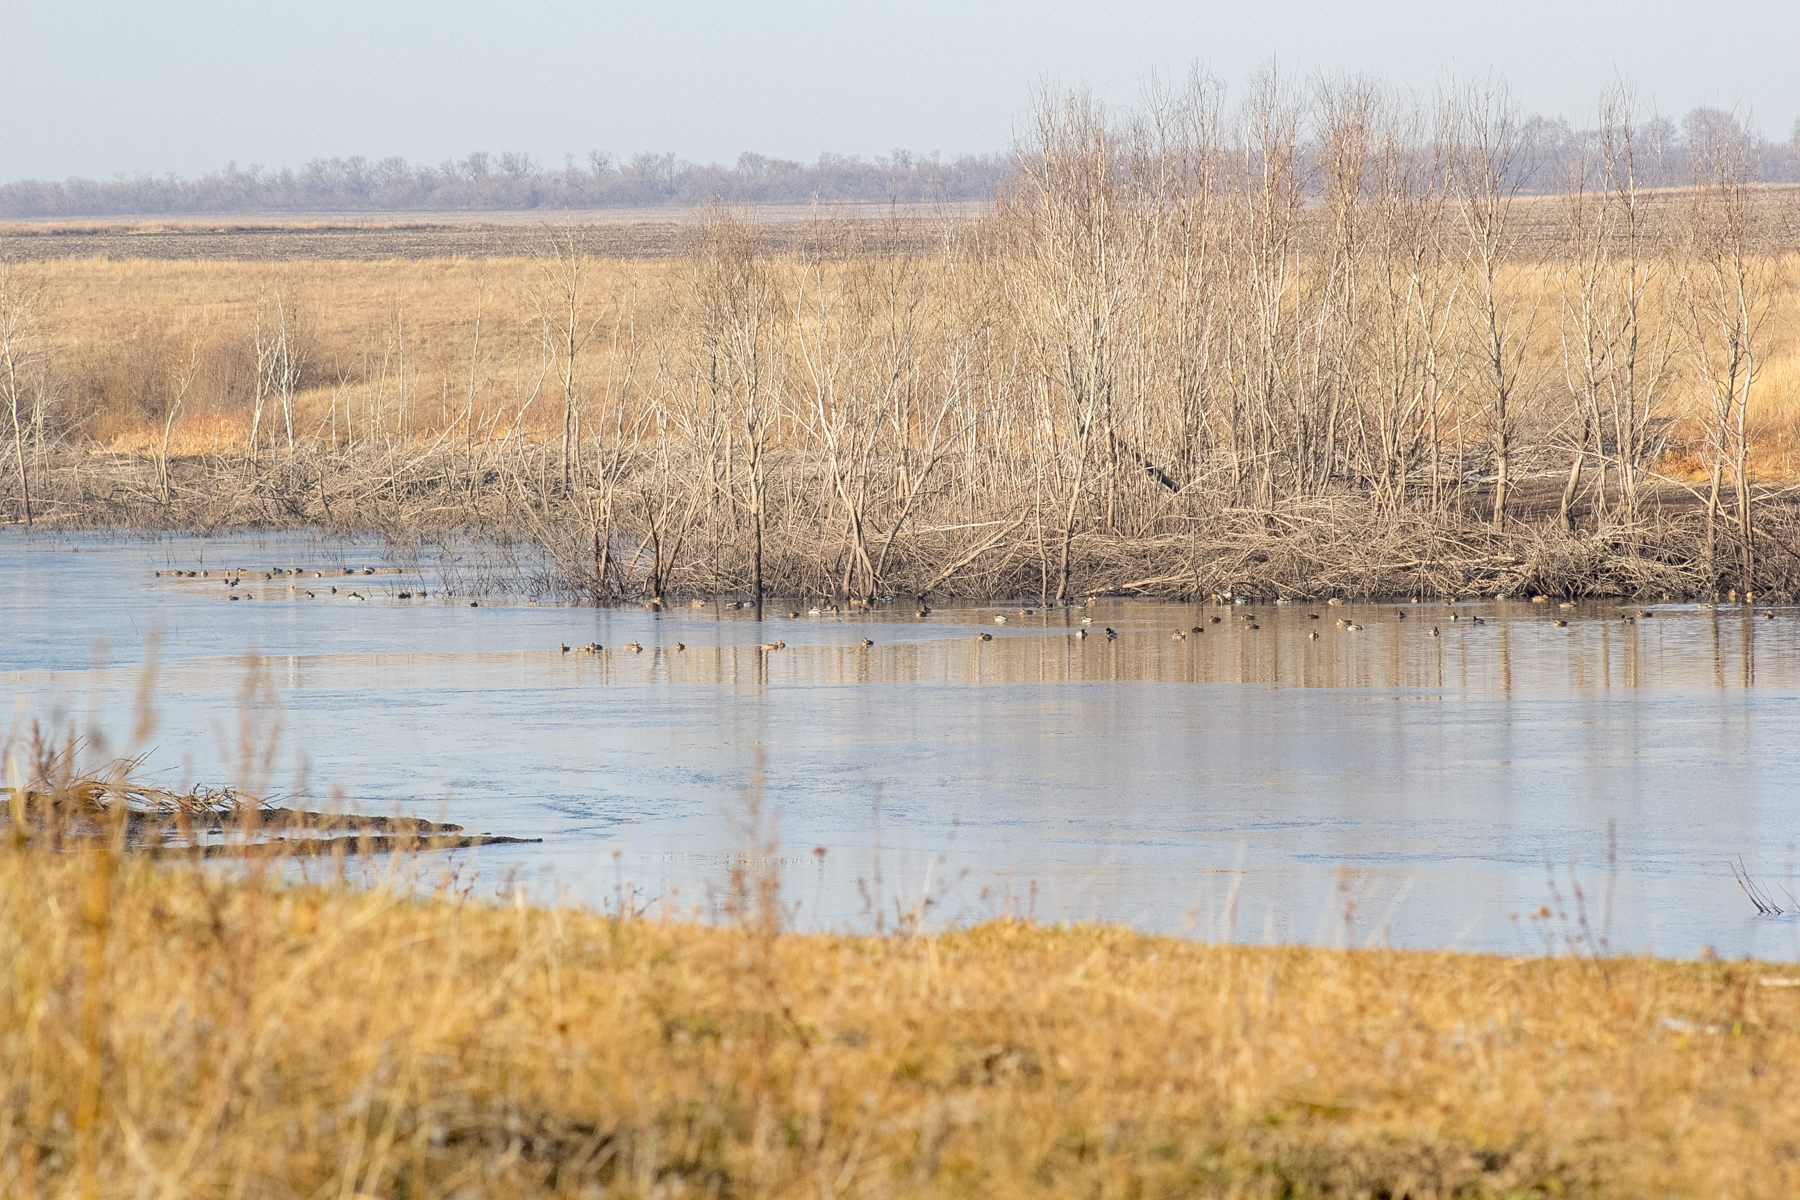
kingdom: Animalia
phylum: Chordata
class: Aves
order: Anseriformes
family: Anatidae
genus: Anas
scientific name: Anas platyrhynchos
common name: Mallard
